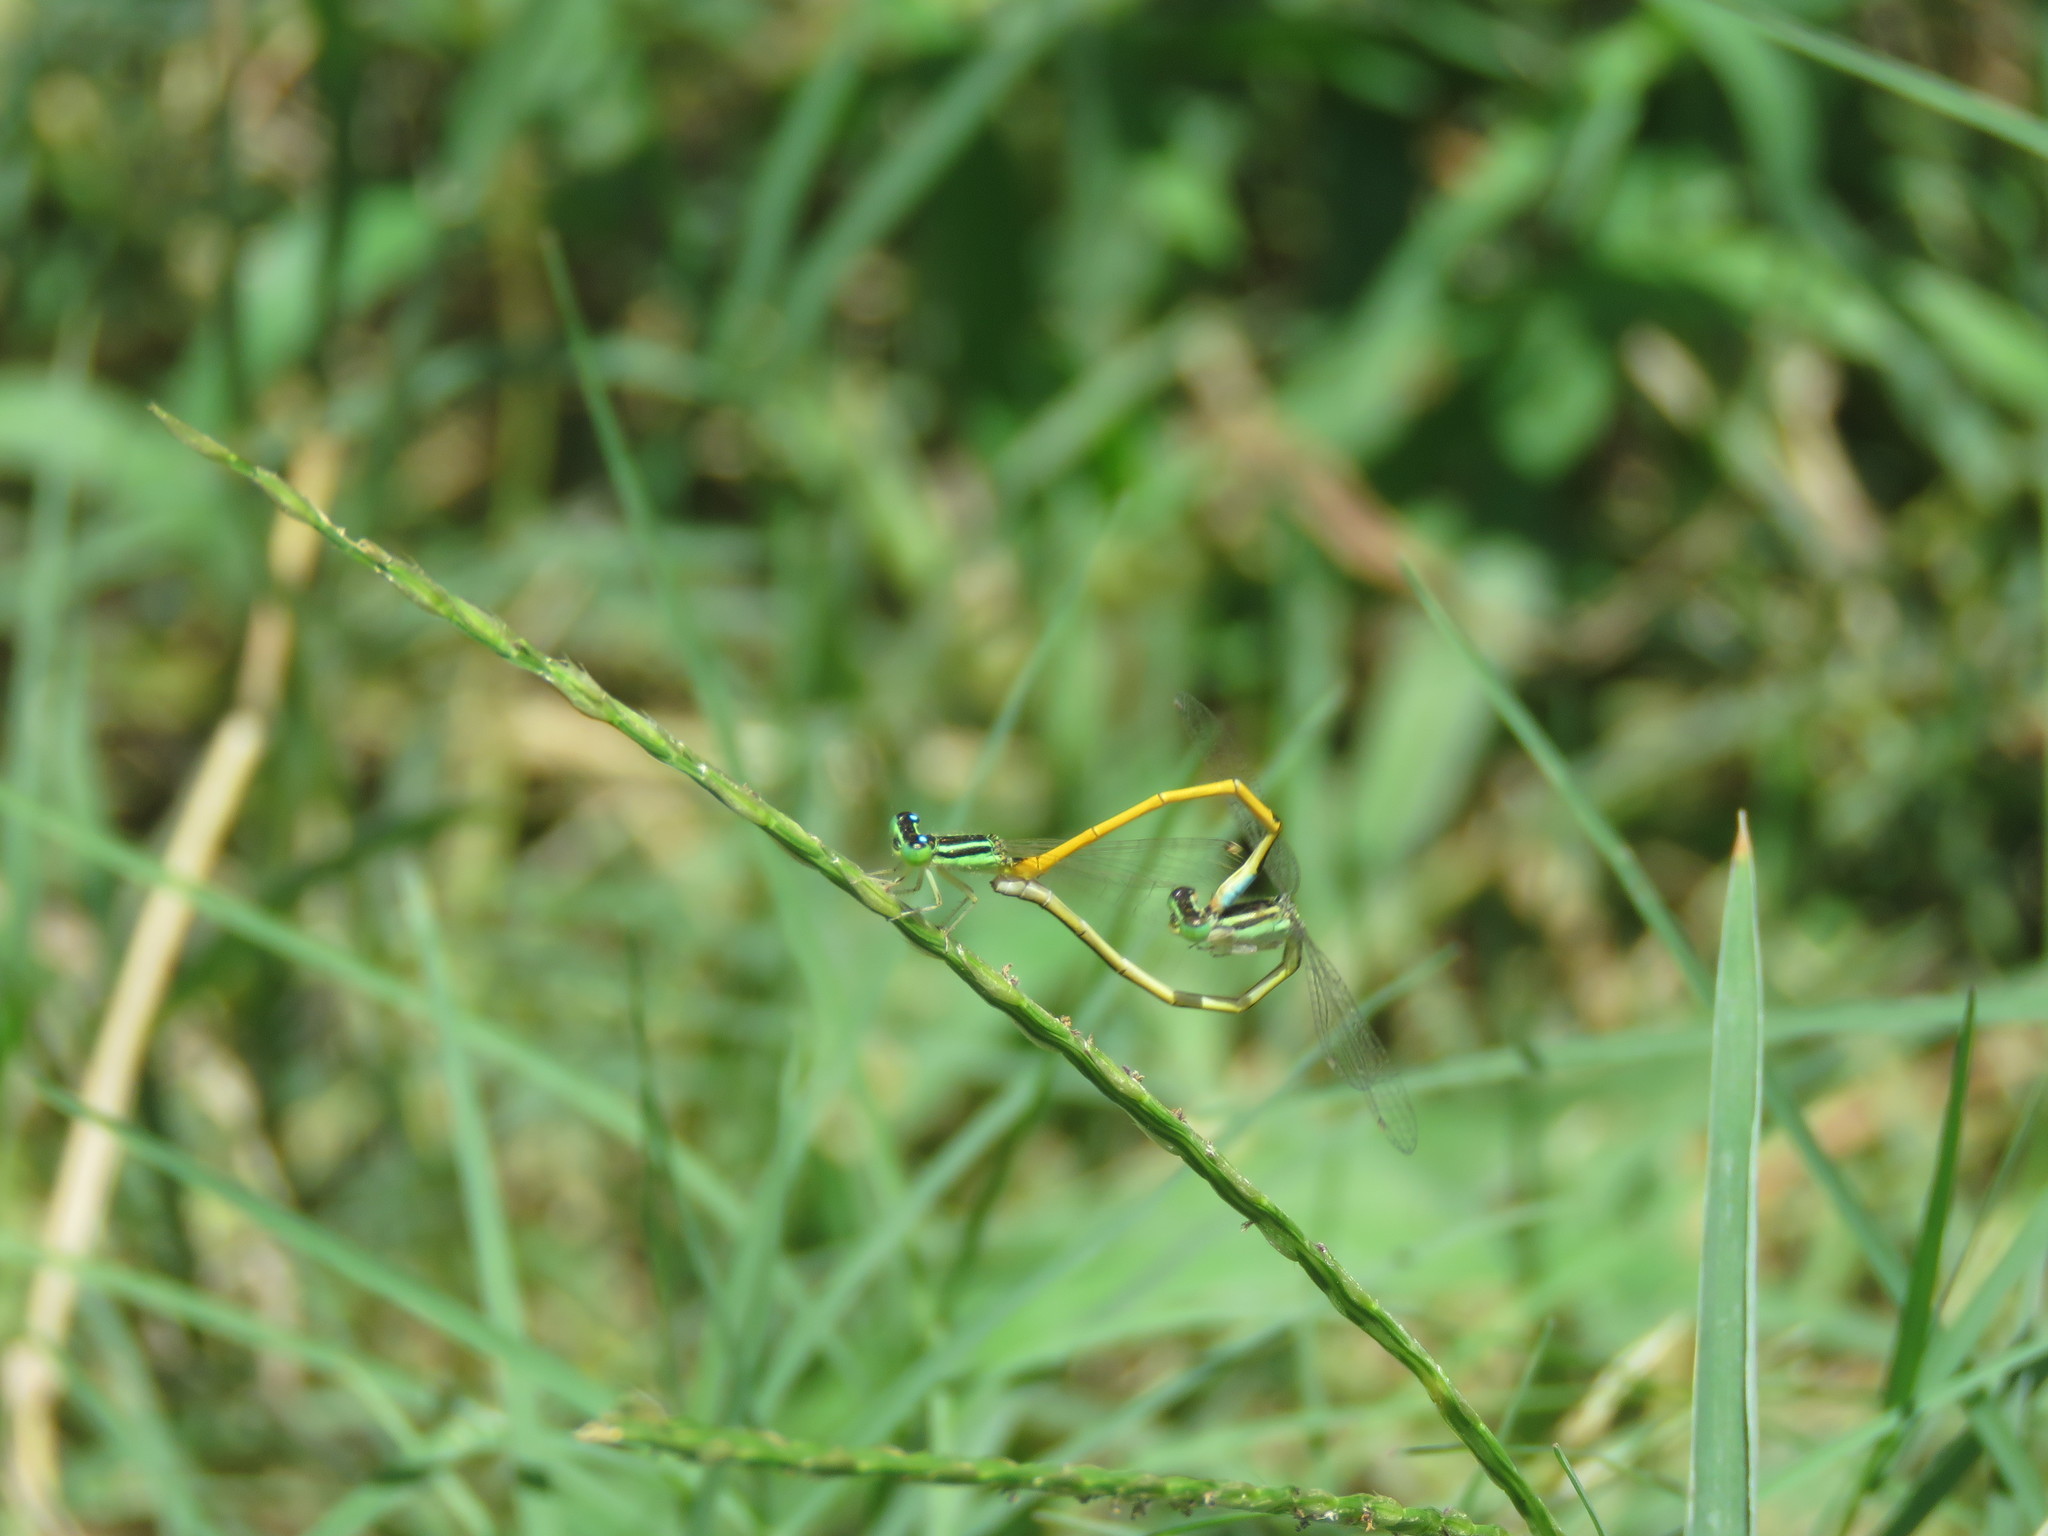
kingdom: Animalia
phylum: Arthropoda
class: Insecta
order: Odonata
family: Coenagrionidae
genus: Ischnura
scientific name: Ischnura rubilio
